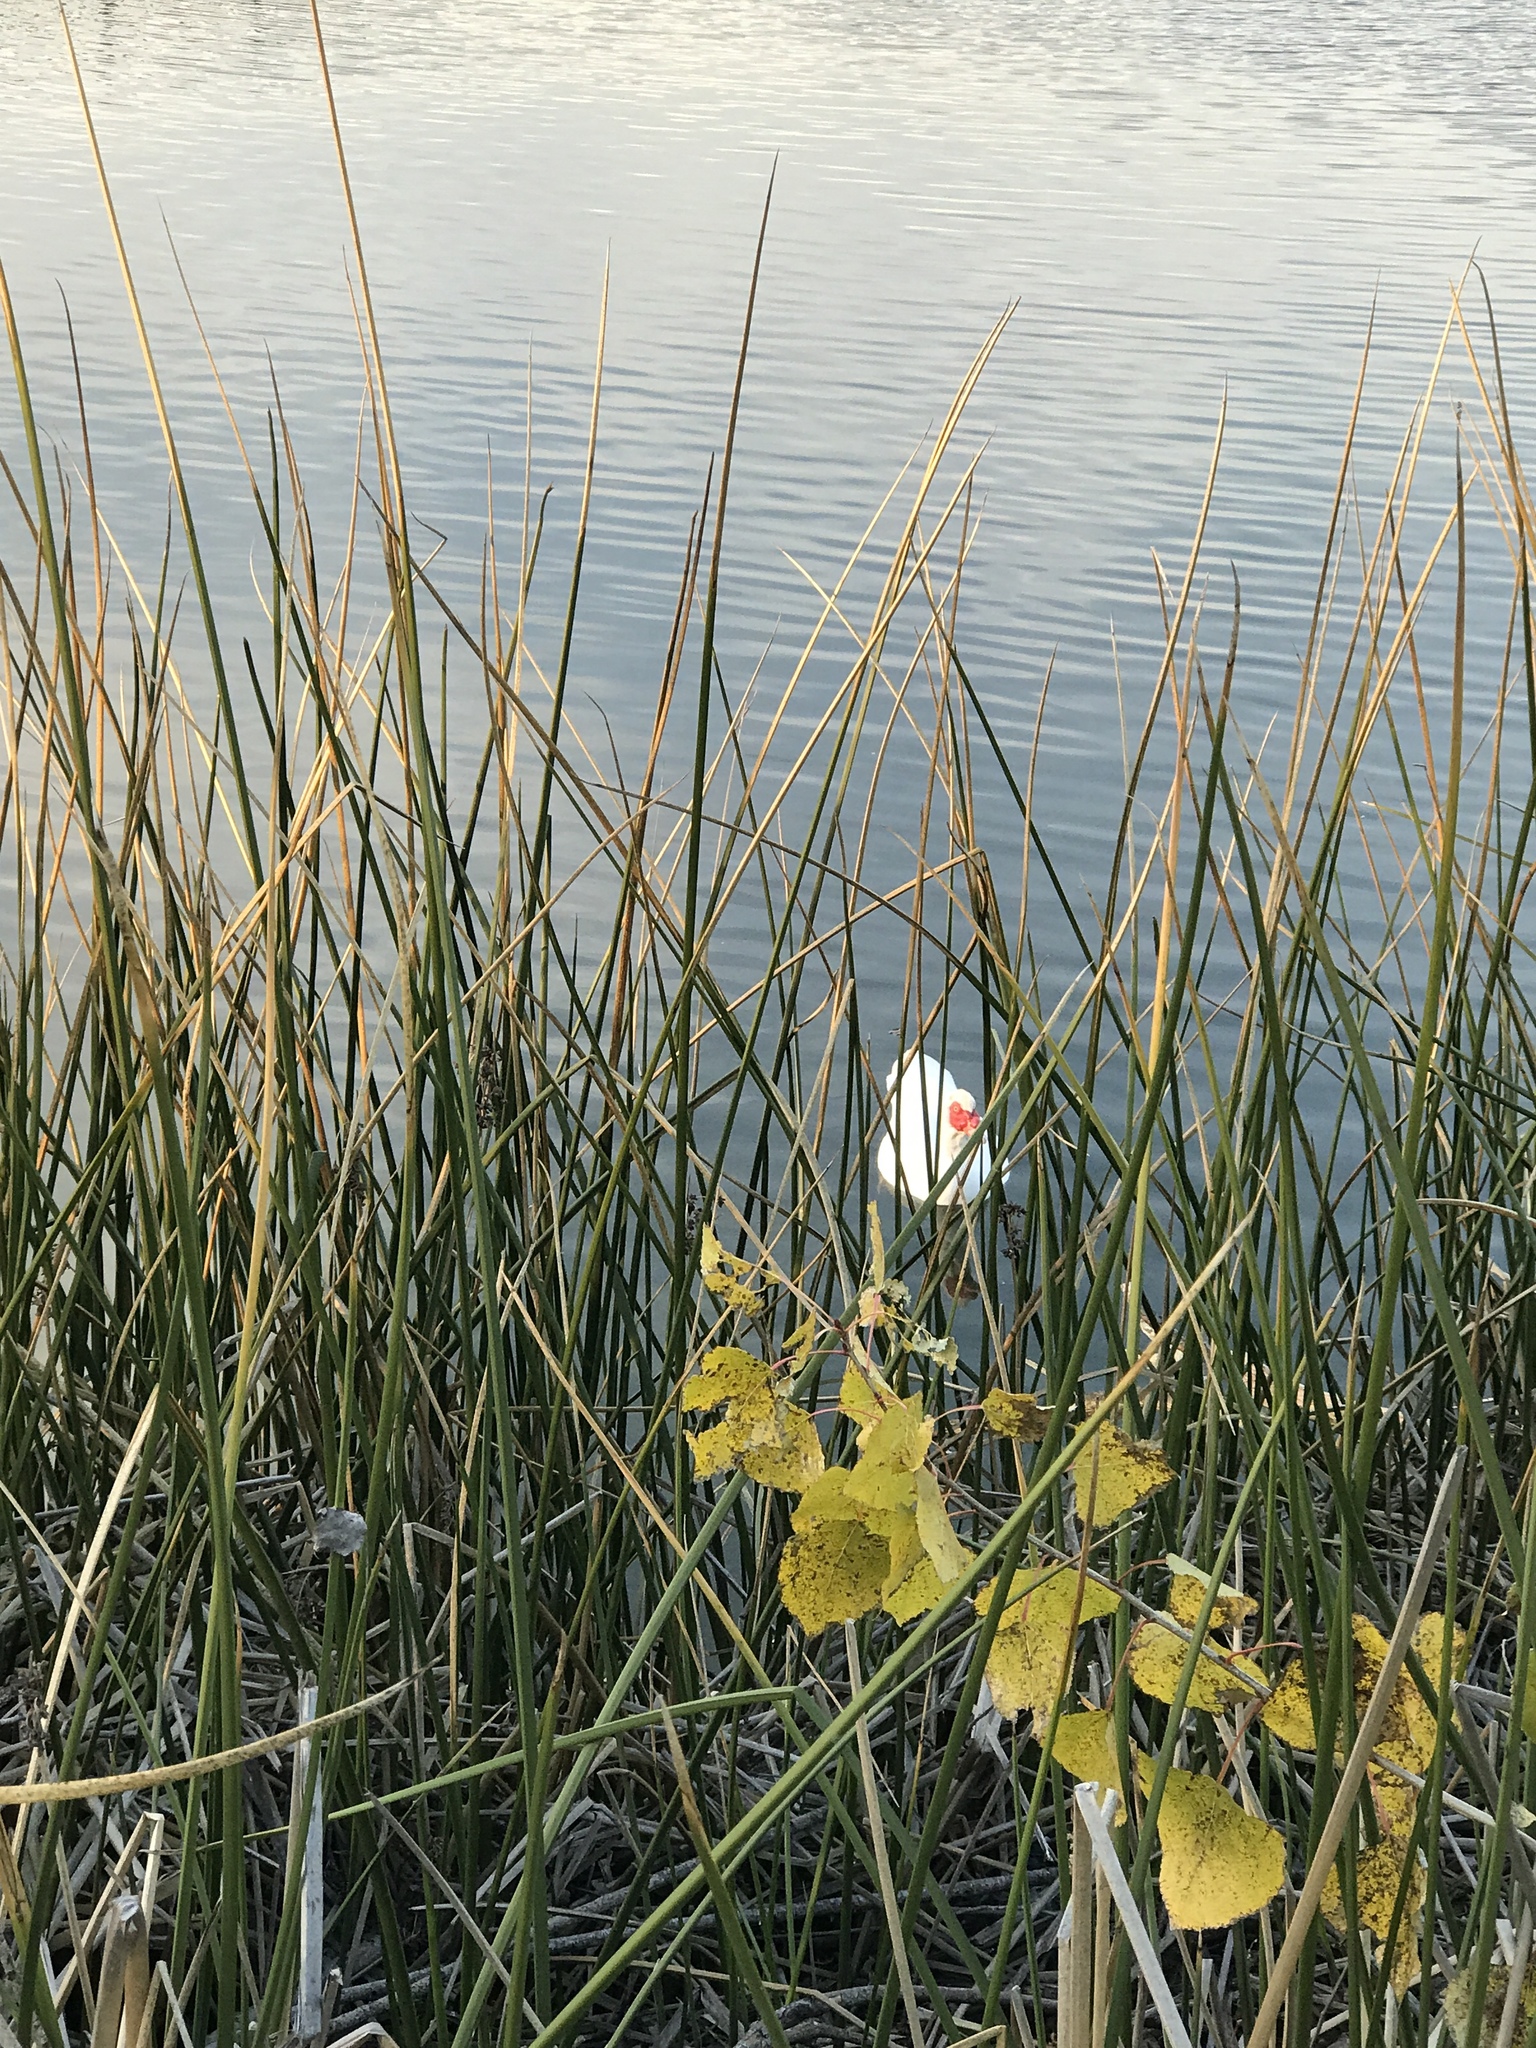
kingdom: Animalia
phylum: Chordata
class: Aves
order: Anseriformes
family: Anatidae
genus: Cairina
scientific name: Cairina moschata
